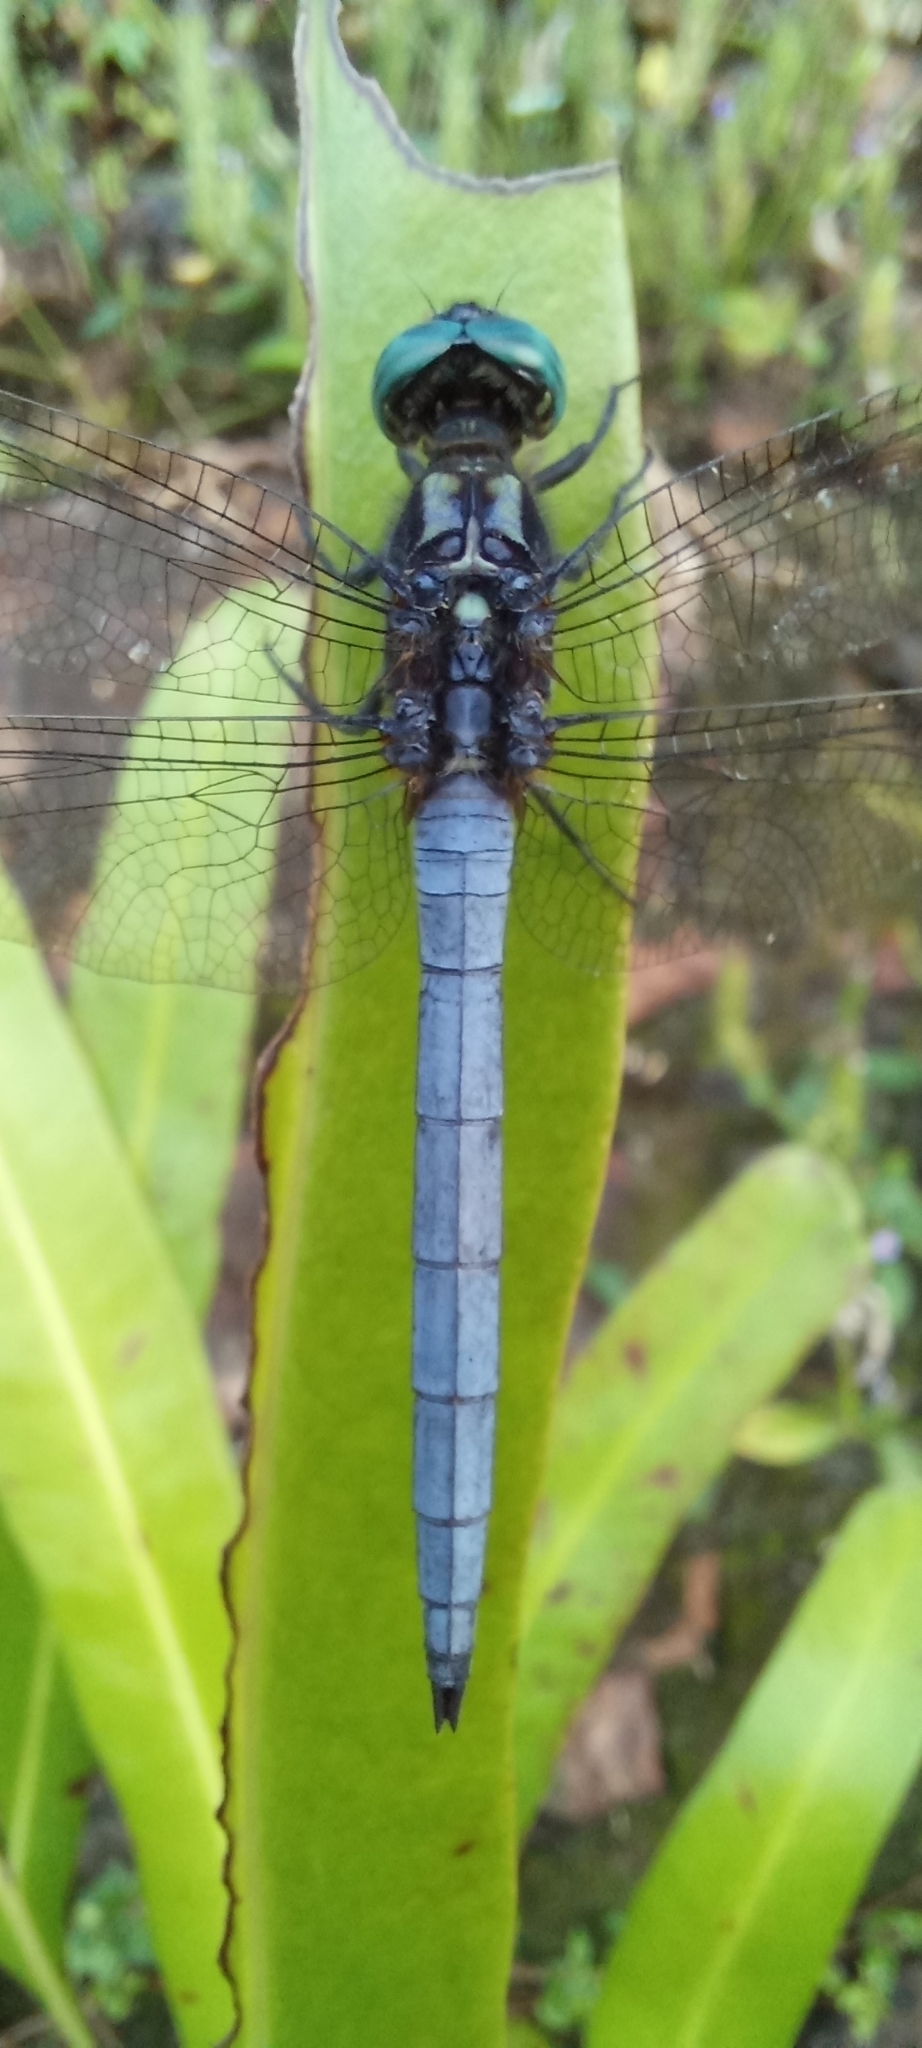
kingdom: Animalia
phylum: Arthropoda
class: Insecta
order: Odonata
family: Libellulidae
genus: Orthetrum
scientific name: Orthetrum luzonicum
